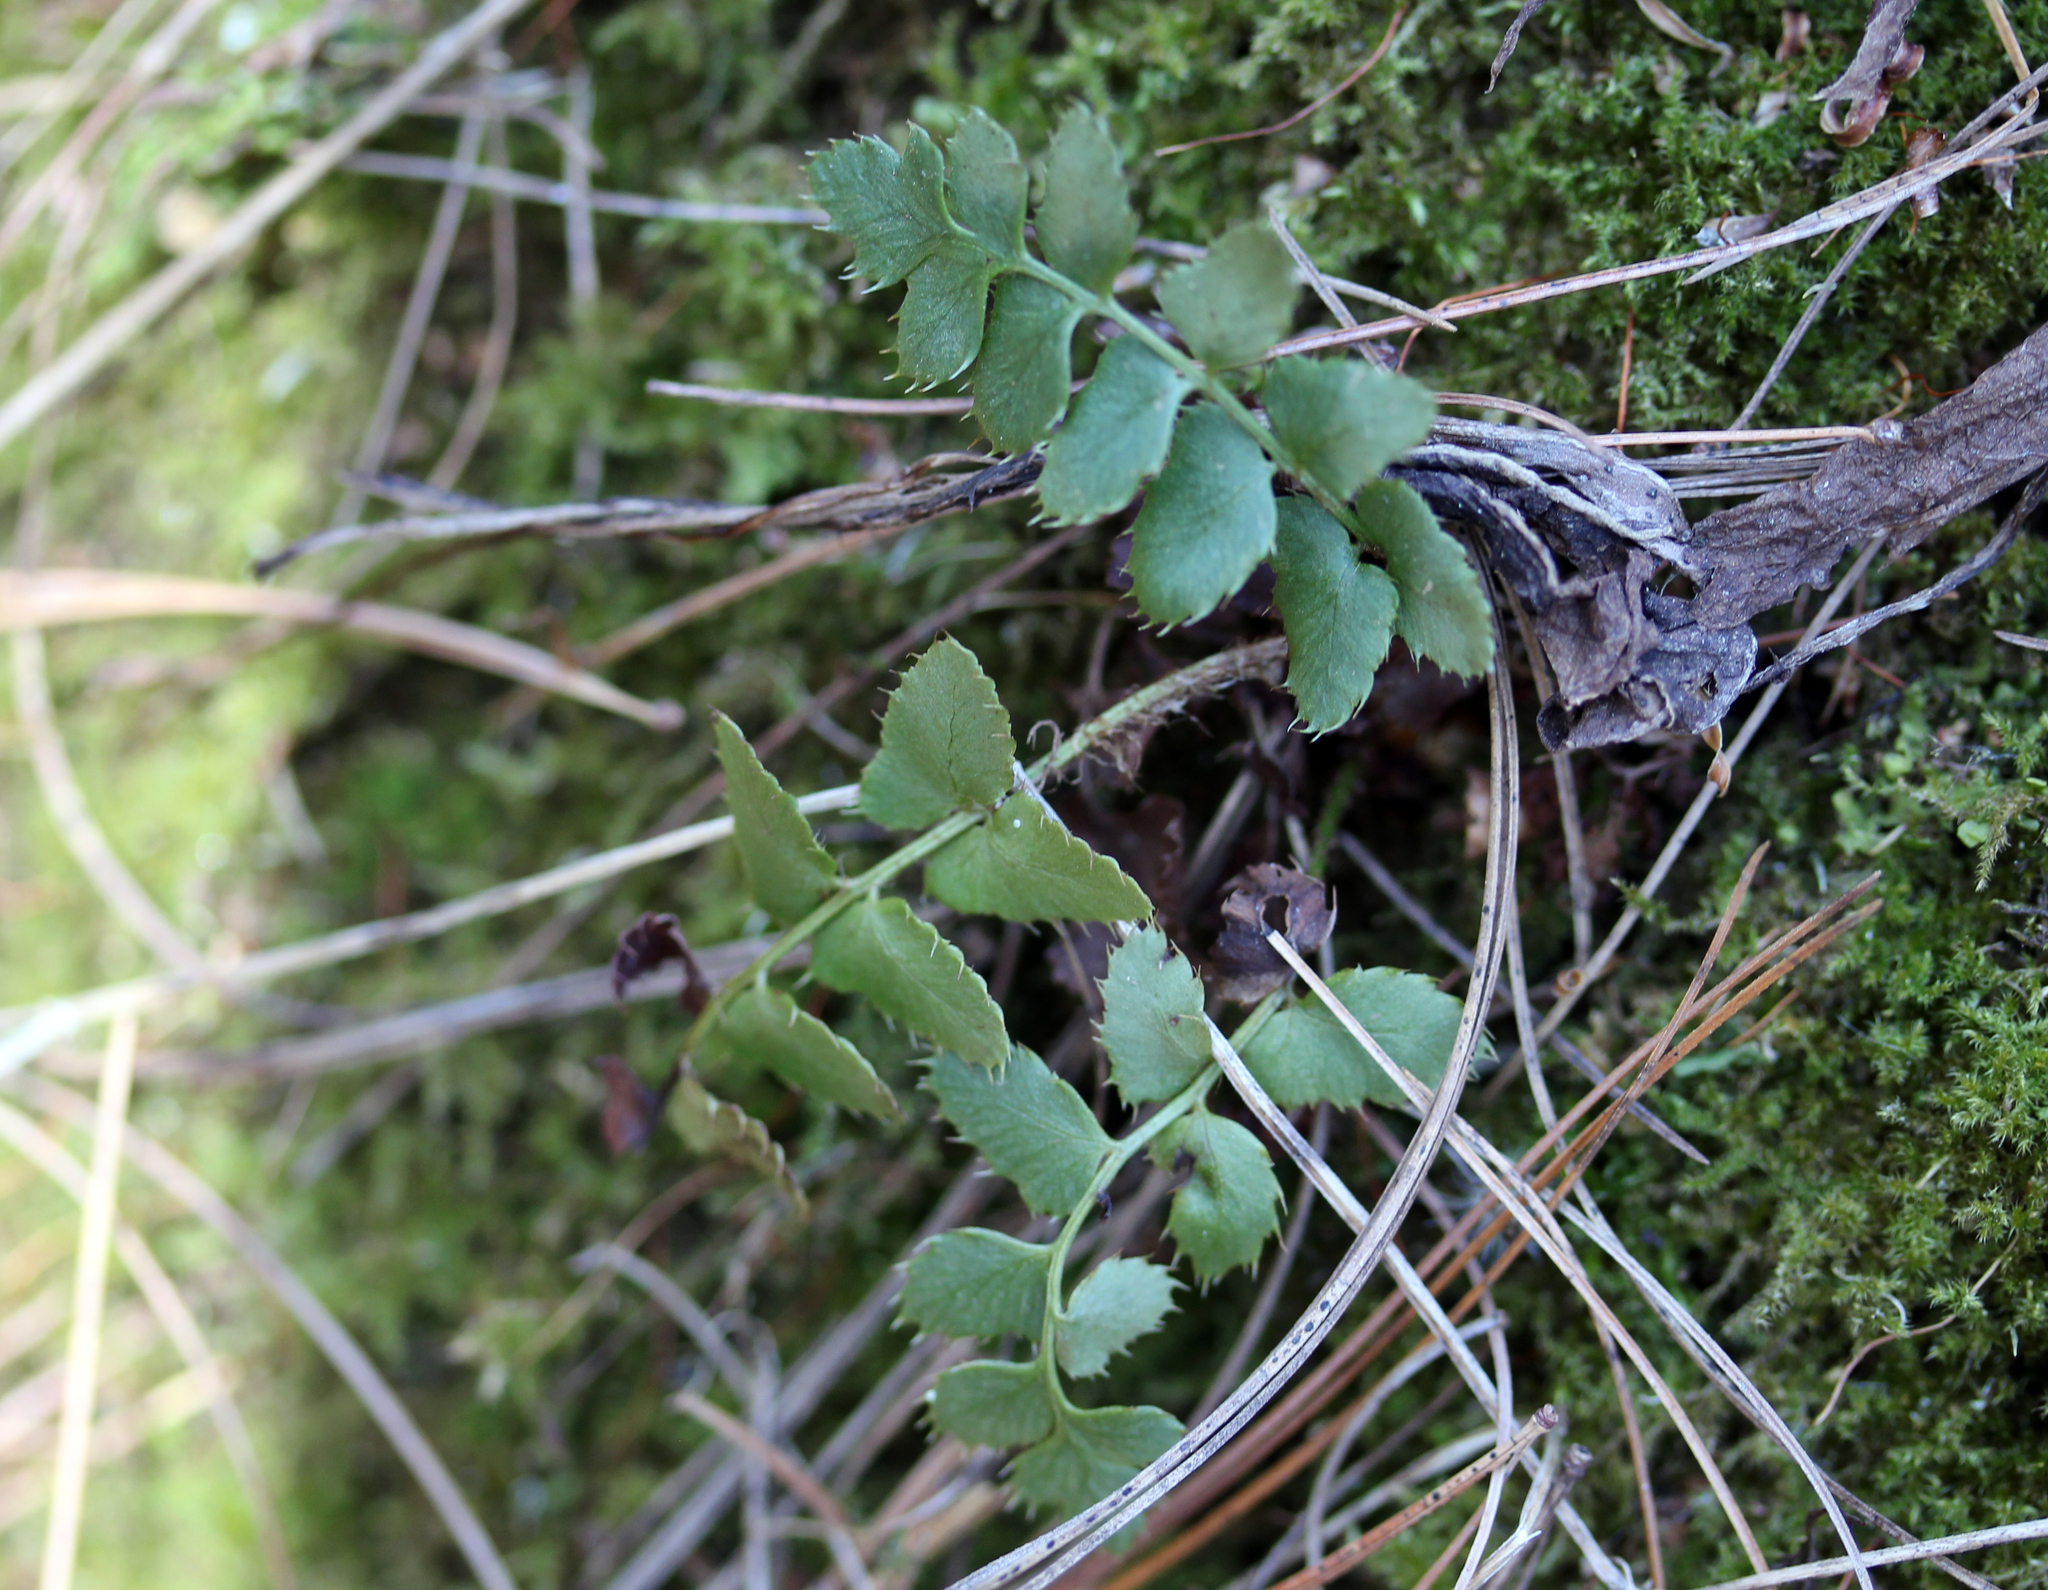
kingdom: Plantae
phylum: Tracheophyta
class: Polypodiopsida
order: Polypodiales
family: Dryopteridaceae
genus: Polystichum
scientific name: Polystichum acrostichoides
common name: Christmas fern
